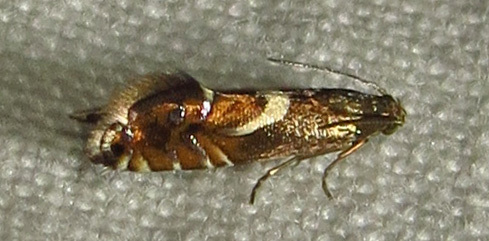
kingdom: Animalia
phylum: Arthropoda
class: Insecta
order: Lepidoptera
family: Glyphipterigidae
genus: Glyphipterix
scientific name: Glyphipterix Diploschizia impigritella
